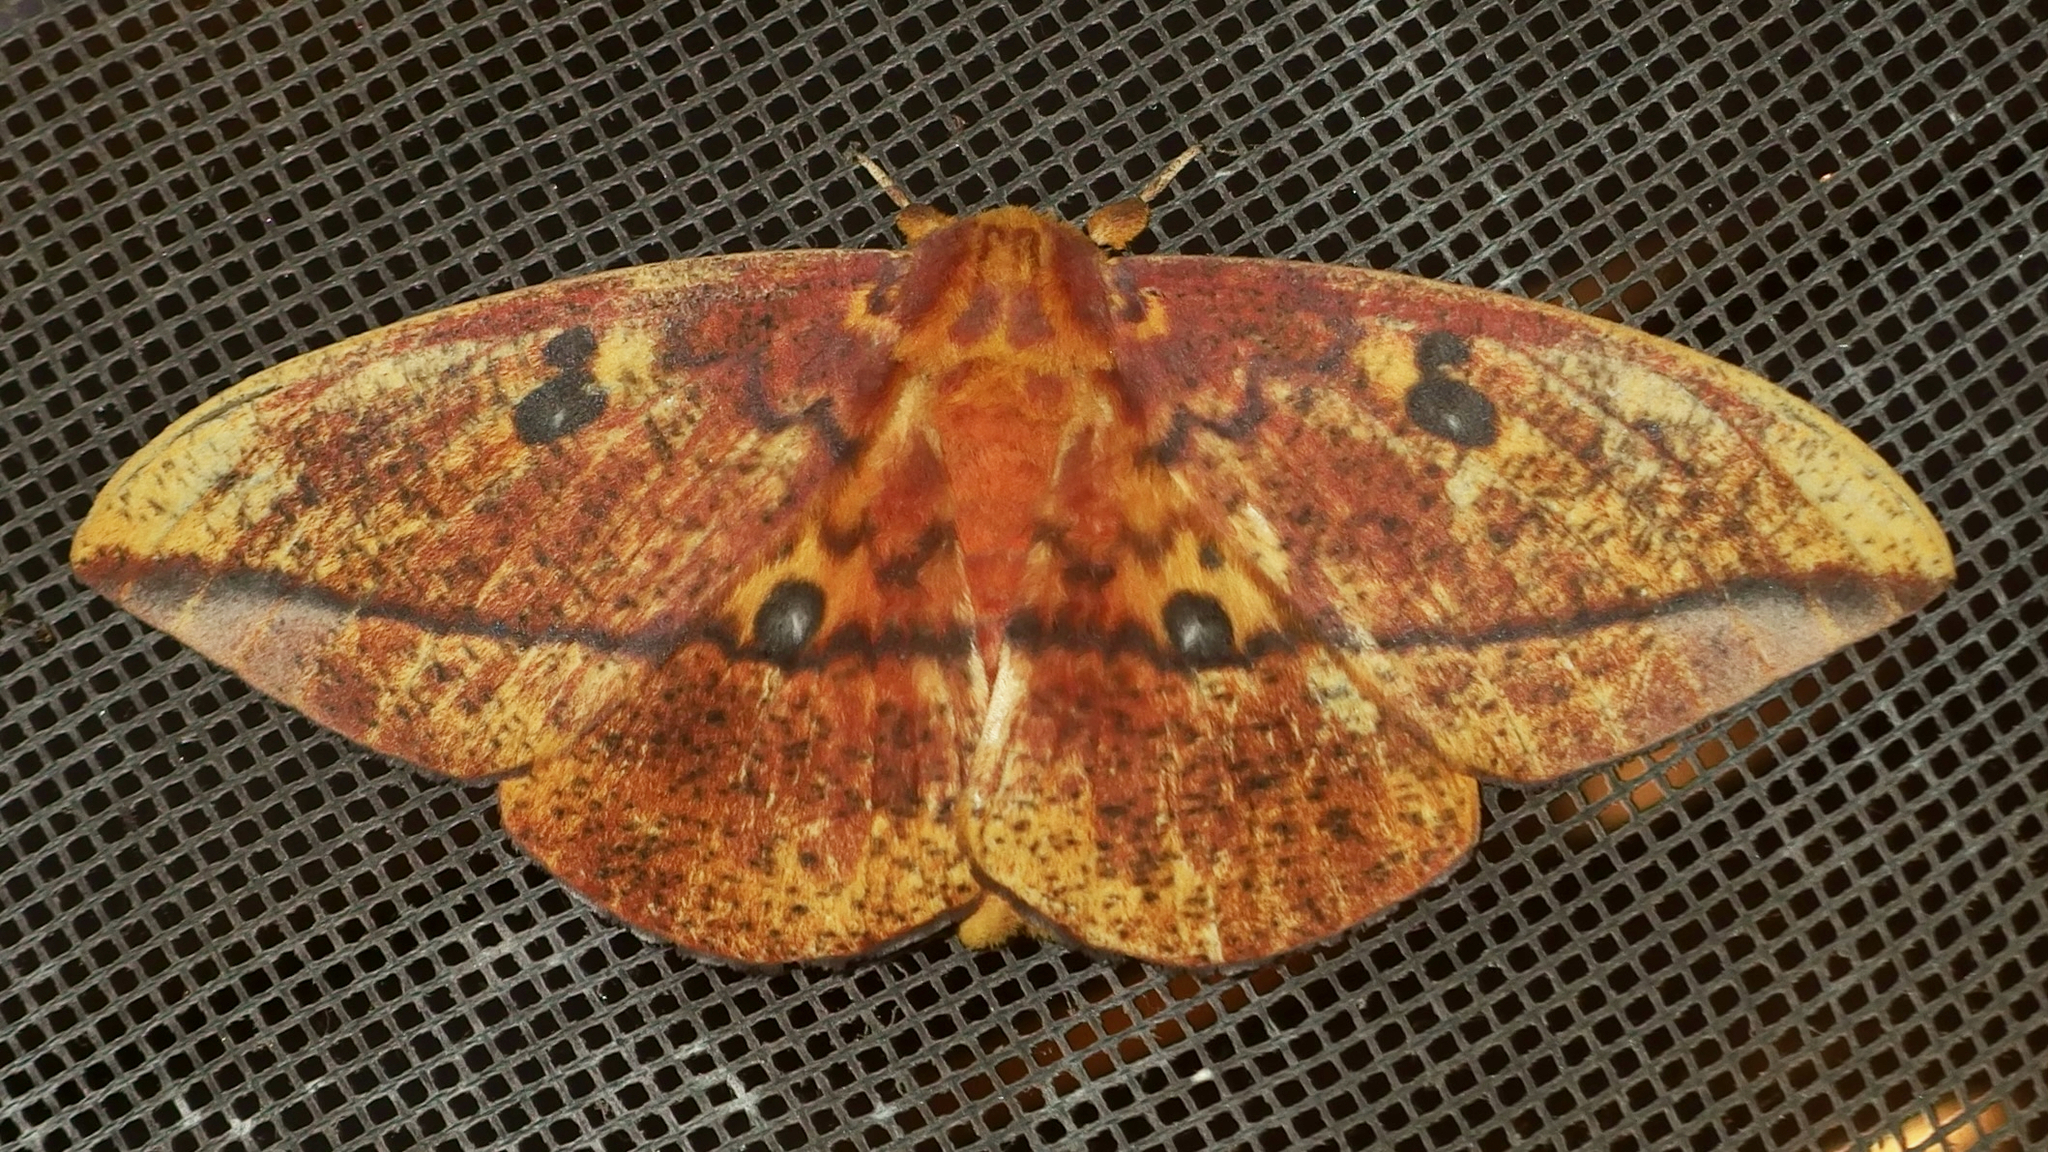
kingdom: Animalia
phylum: Arthropoda
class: Insecta
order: Lepidoptera
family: Saturniidae
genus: Eacles
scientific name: Eacles ormondei
